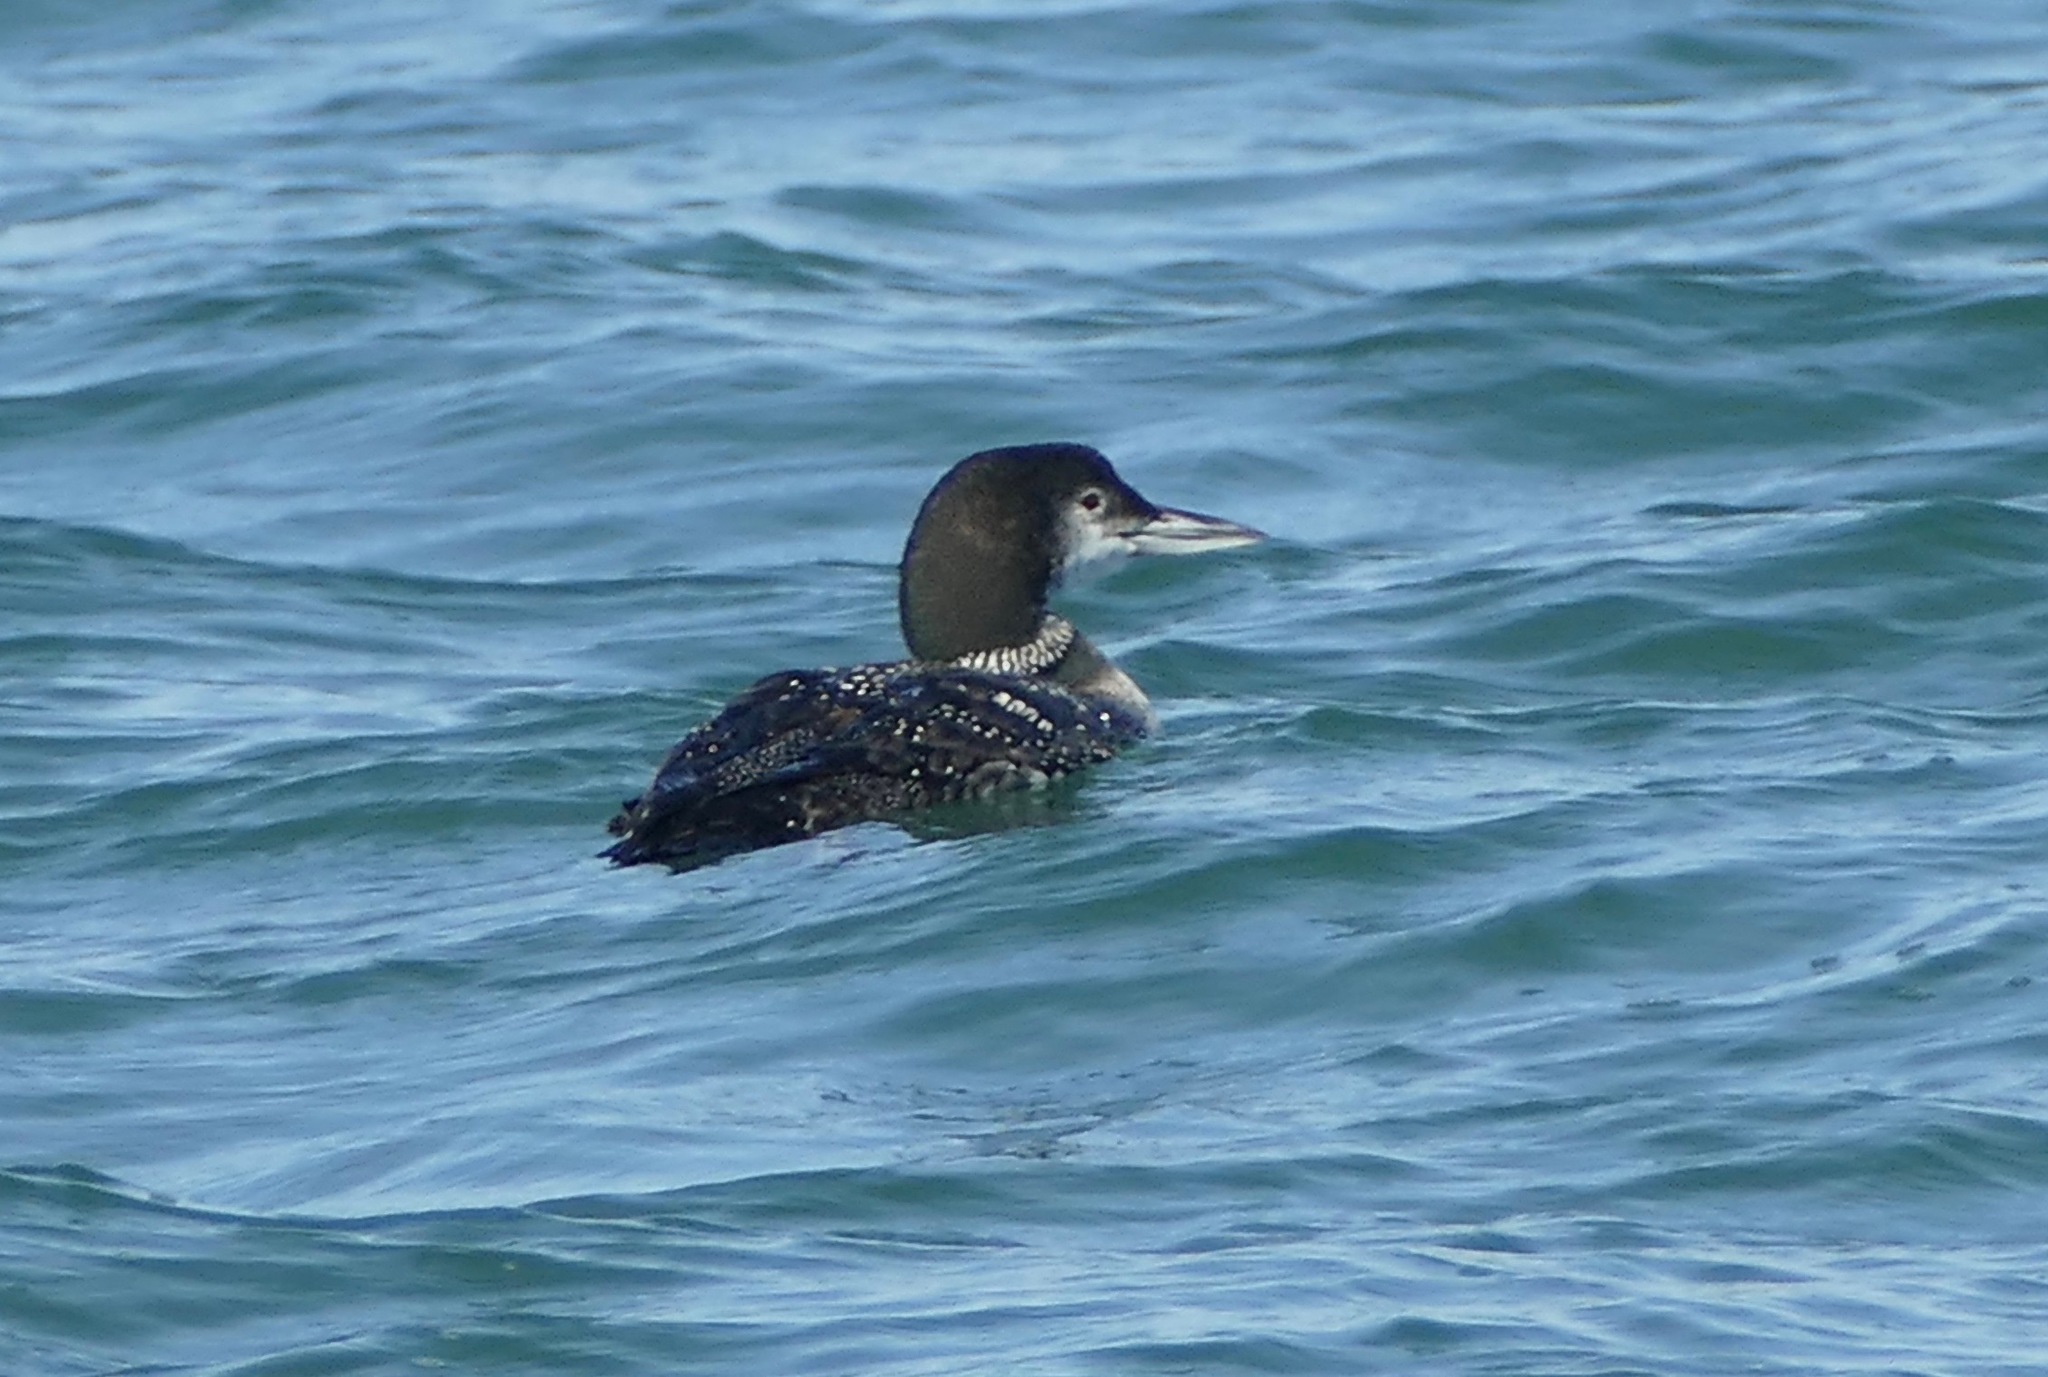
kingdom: Animalia
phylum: Chordata
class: Aves
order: Gaviiformes
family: Gaviidae
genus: Gavia
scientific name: Gavia immer
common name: Common loon
